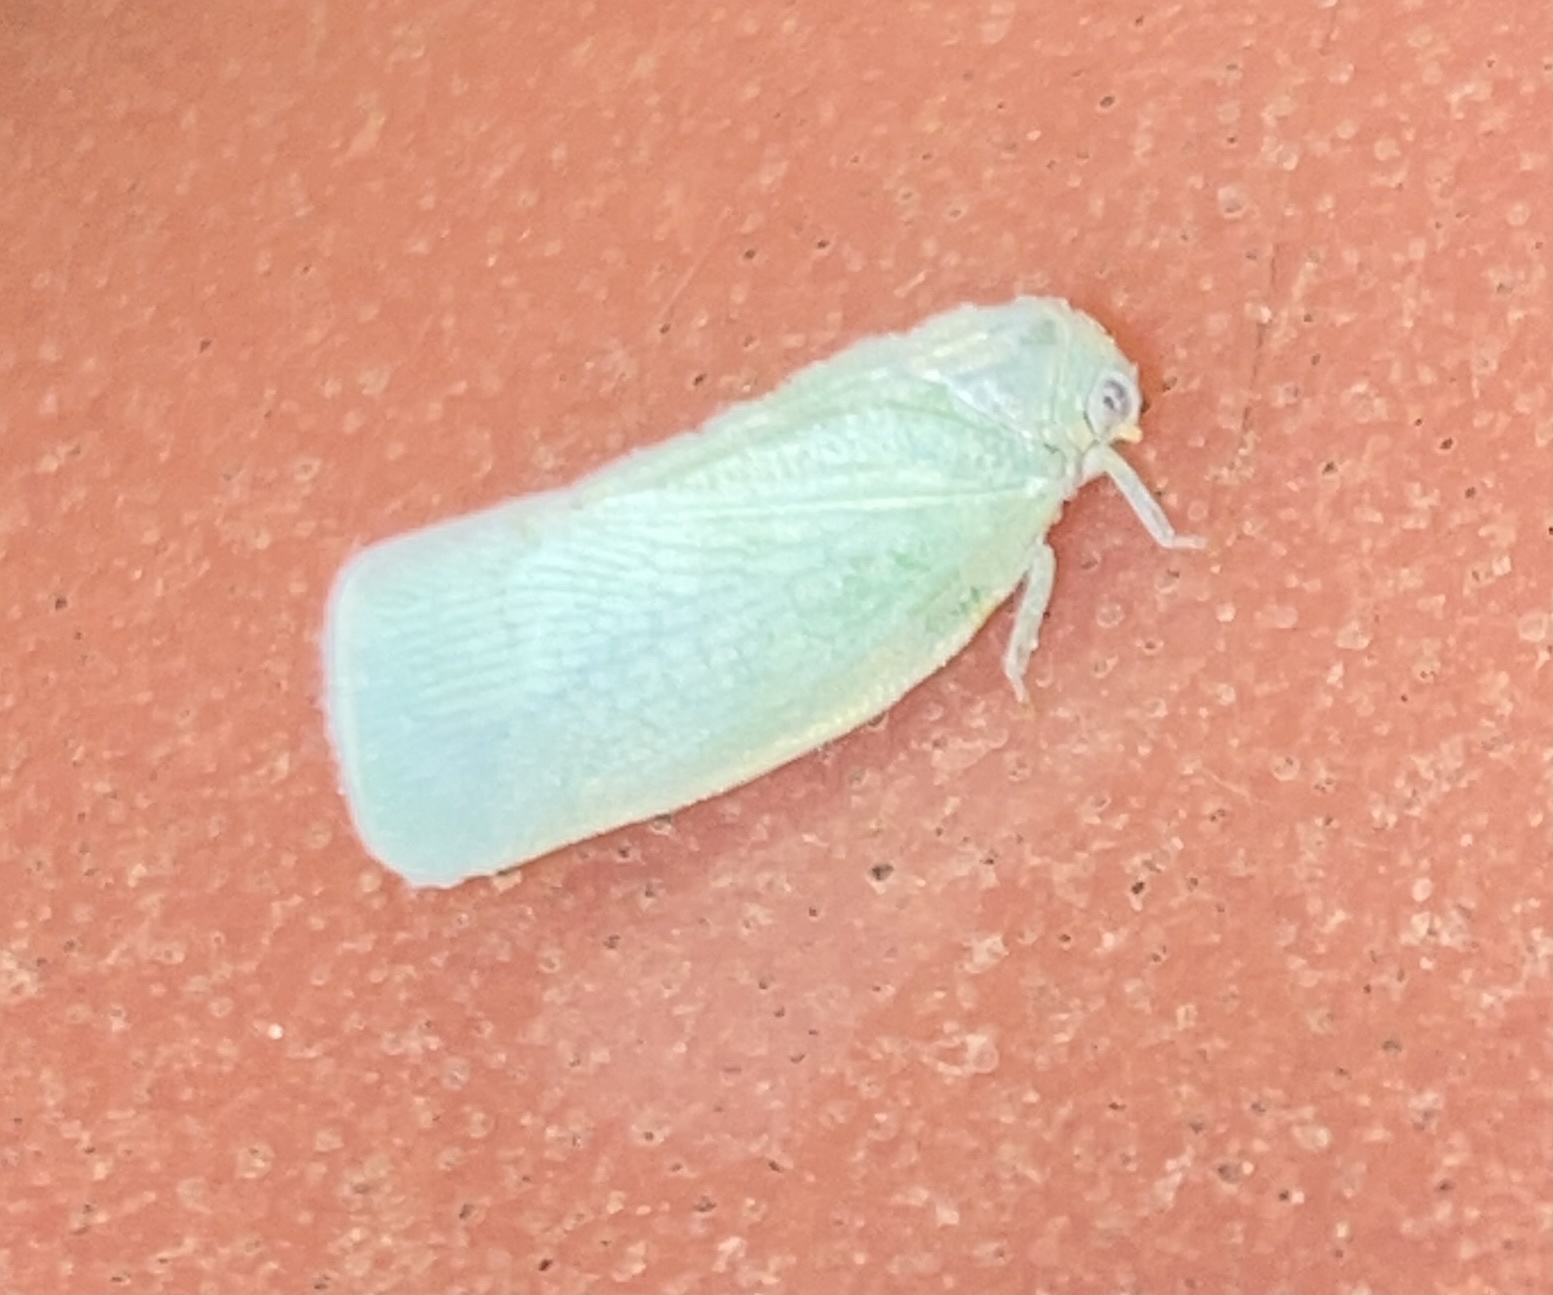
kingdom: Animalia
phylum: Arthropoda
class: Insecta
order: Hemiptera
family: Flatidae
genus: Flatormenis
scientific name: Flatormenis proxima
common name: Northern flatid planthopper
